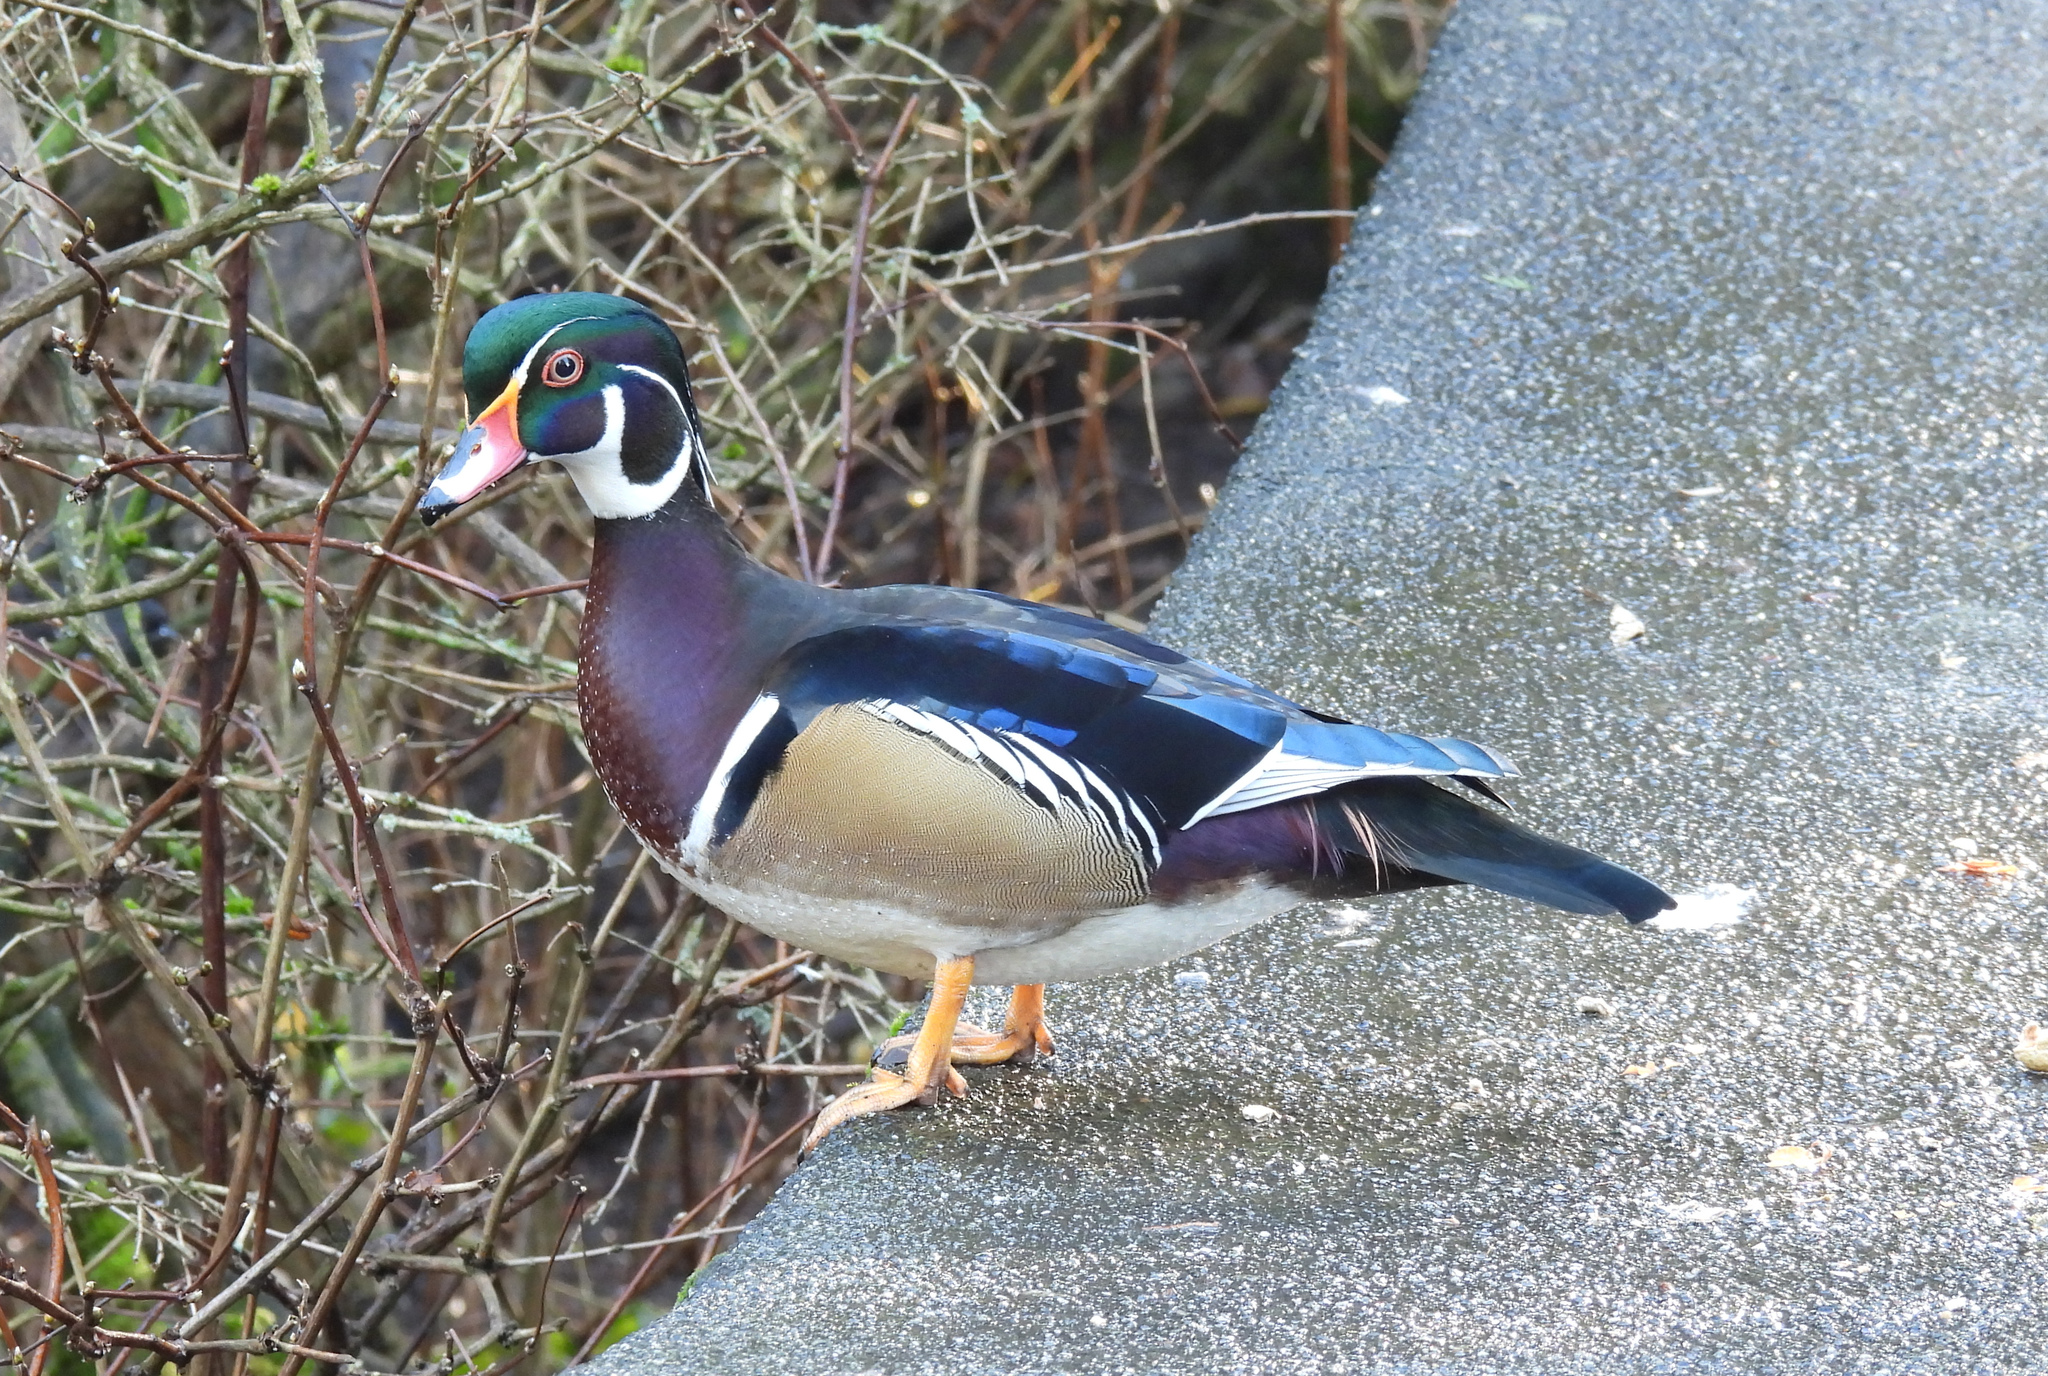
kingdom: Animalia
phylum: Chordata
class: Aves
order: Anseriformes
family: Anatidae
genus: Aix
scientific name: Aix sponsa
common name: Wood duck
